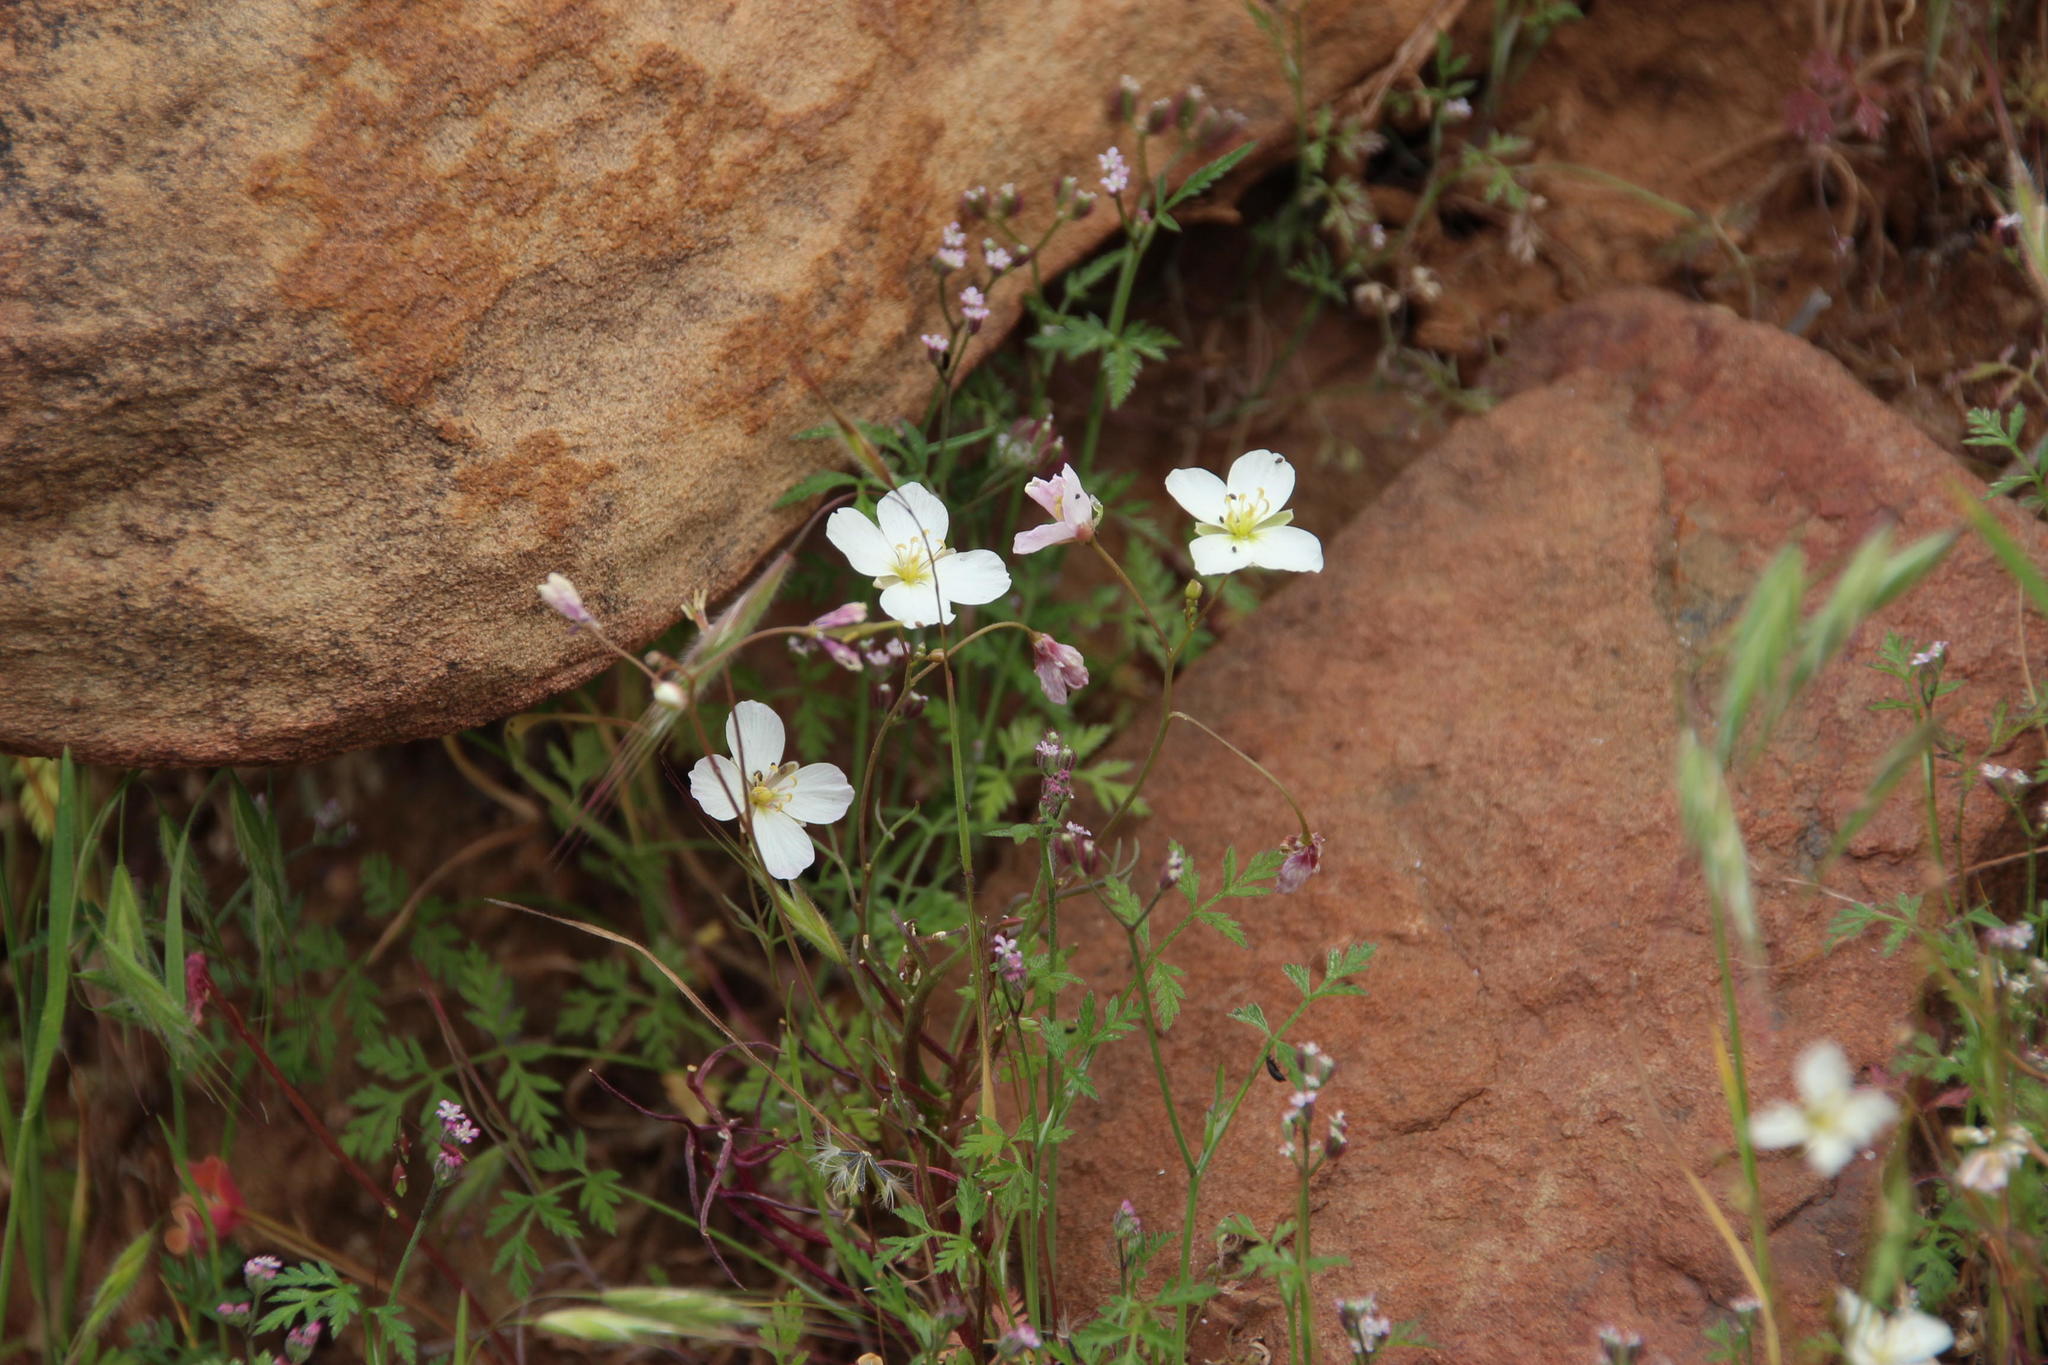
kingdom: Plantae
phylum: Tracheophyta
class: Magnoliopsida
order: Brassicales
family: Brassicaceae
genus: Heliophila
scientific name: Heliophila crithmifolia
